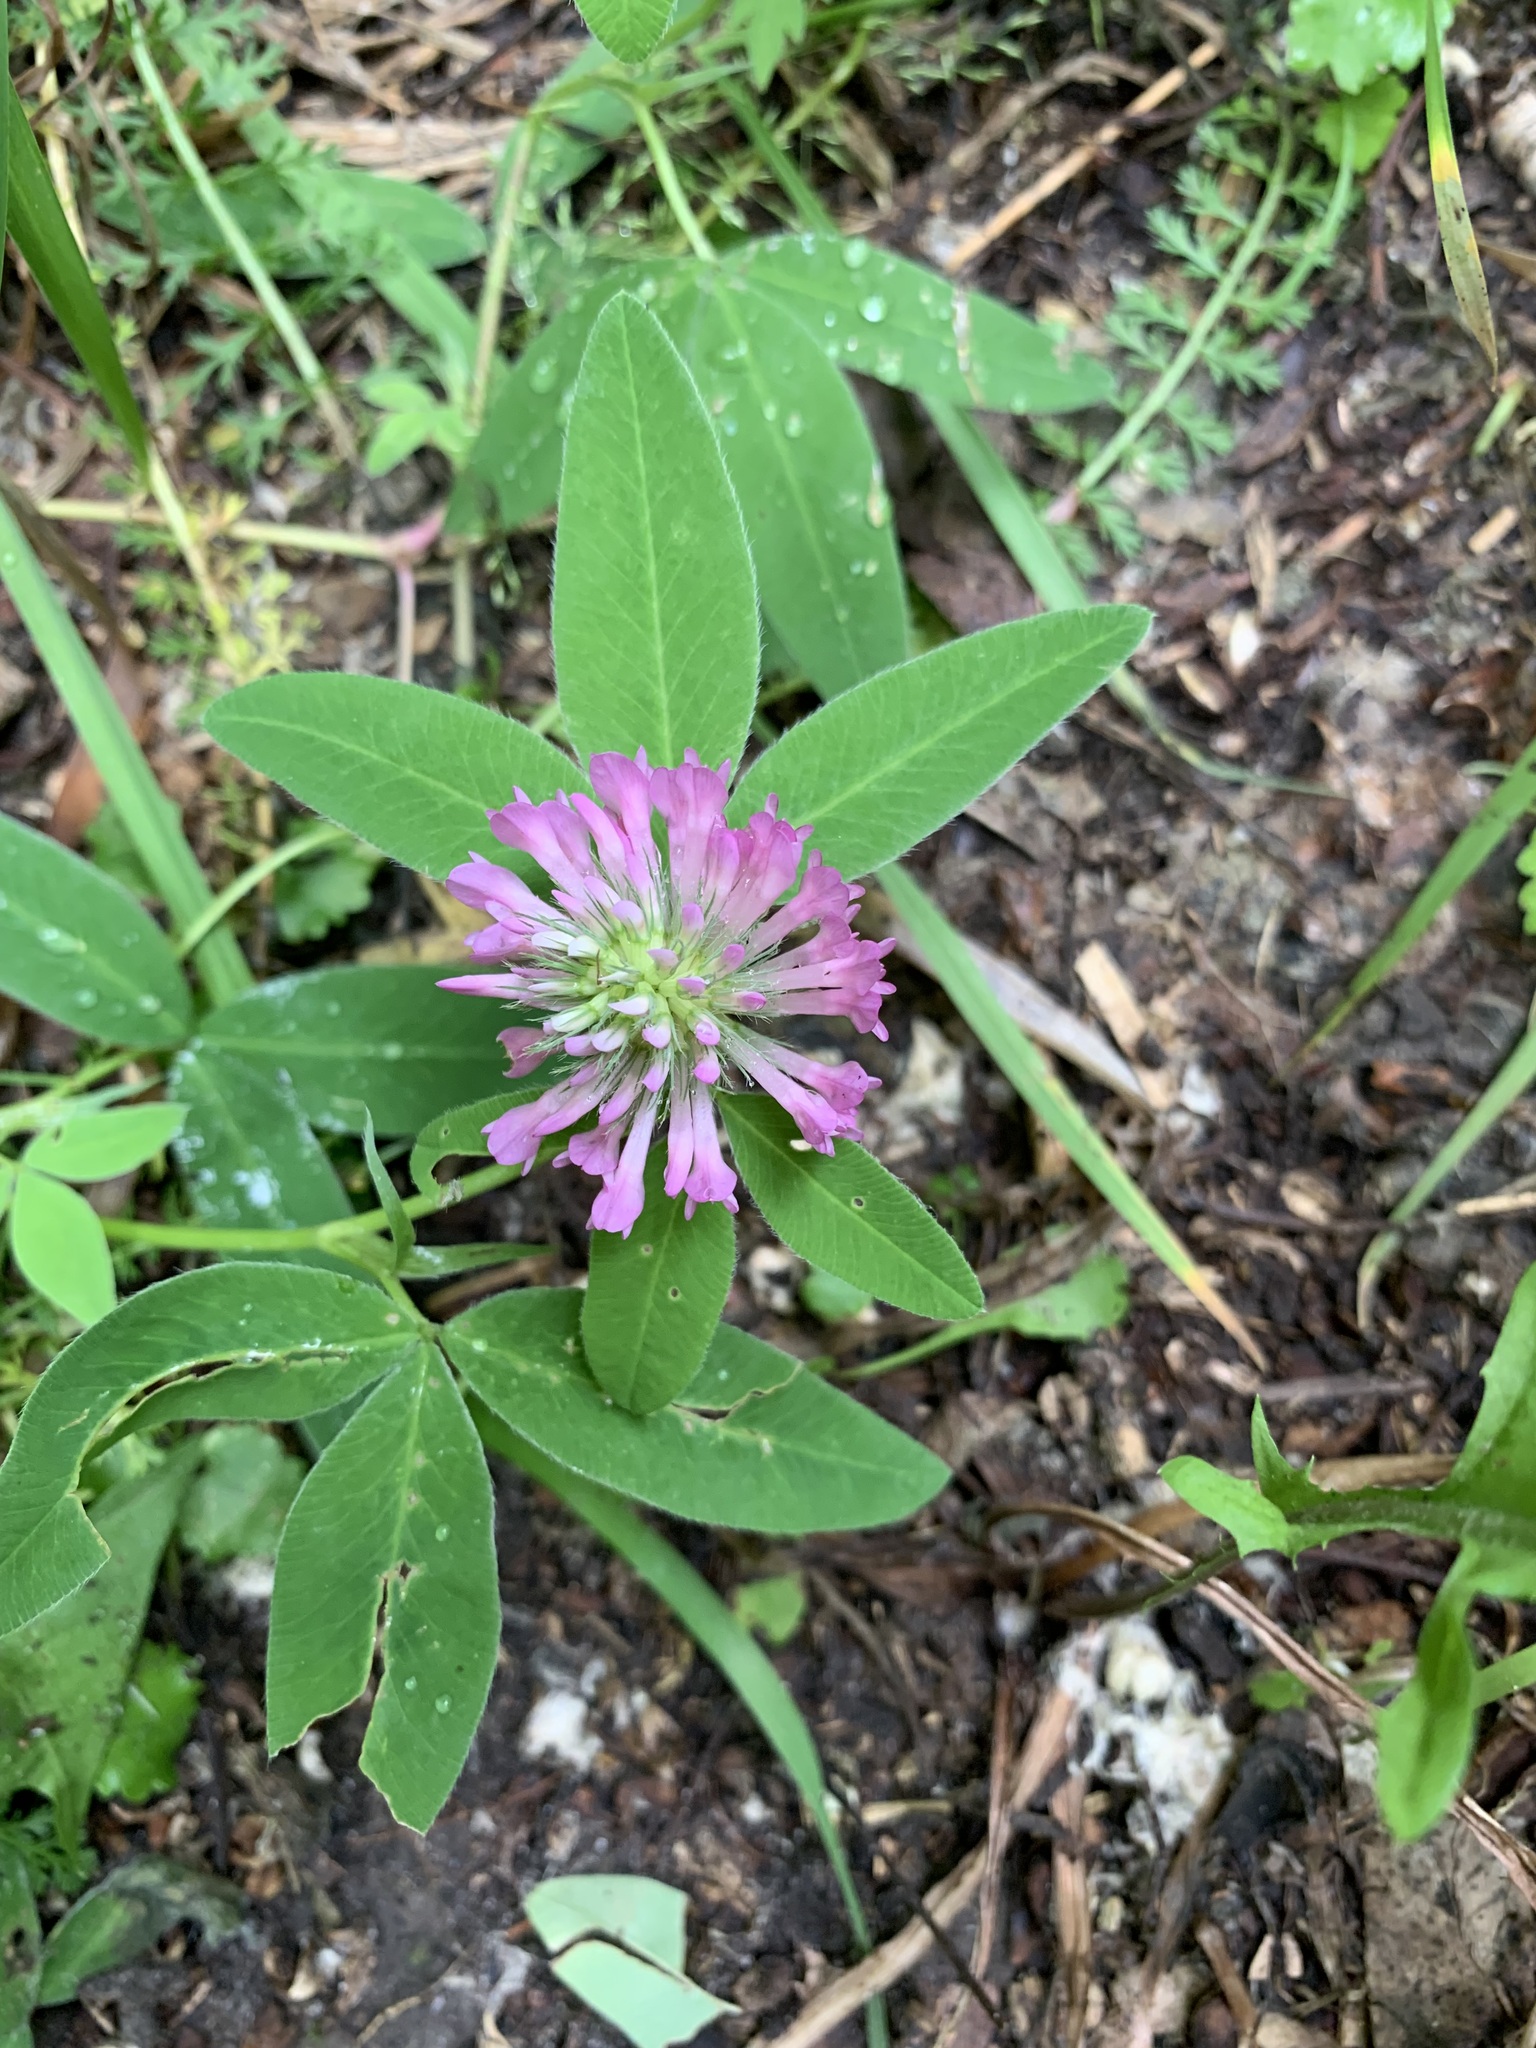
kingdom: Plantae
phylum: Tracheophyta
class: Magnoliopsida
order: Fabales
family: Fabaceae
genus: Trifolium
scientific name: Trifolium medium
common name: Zigzag clover
